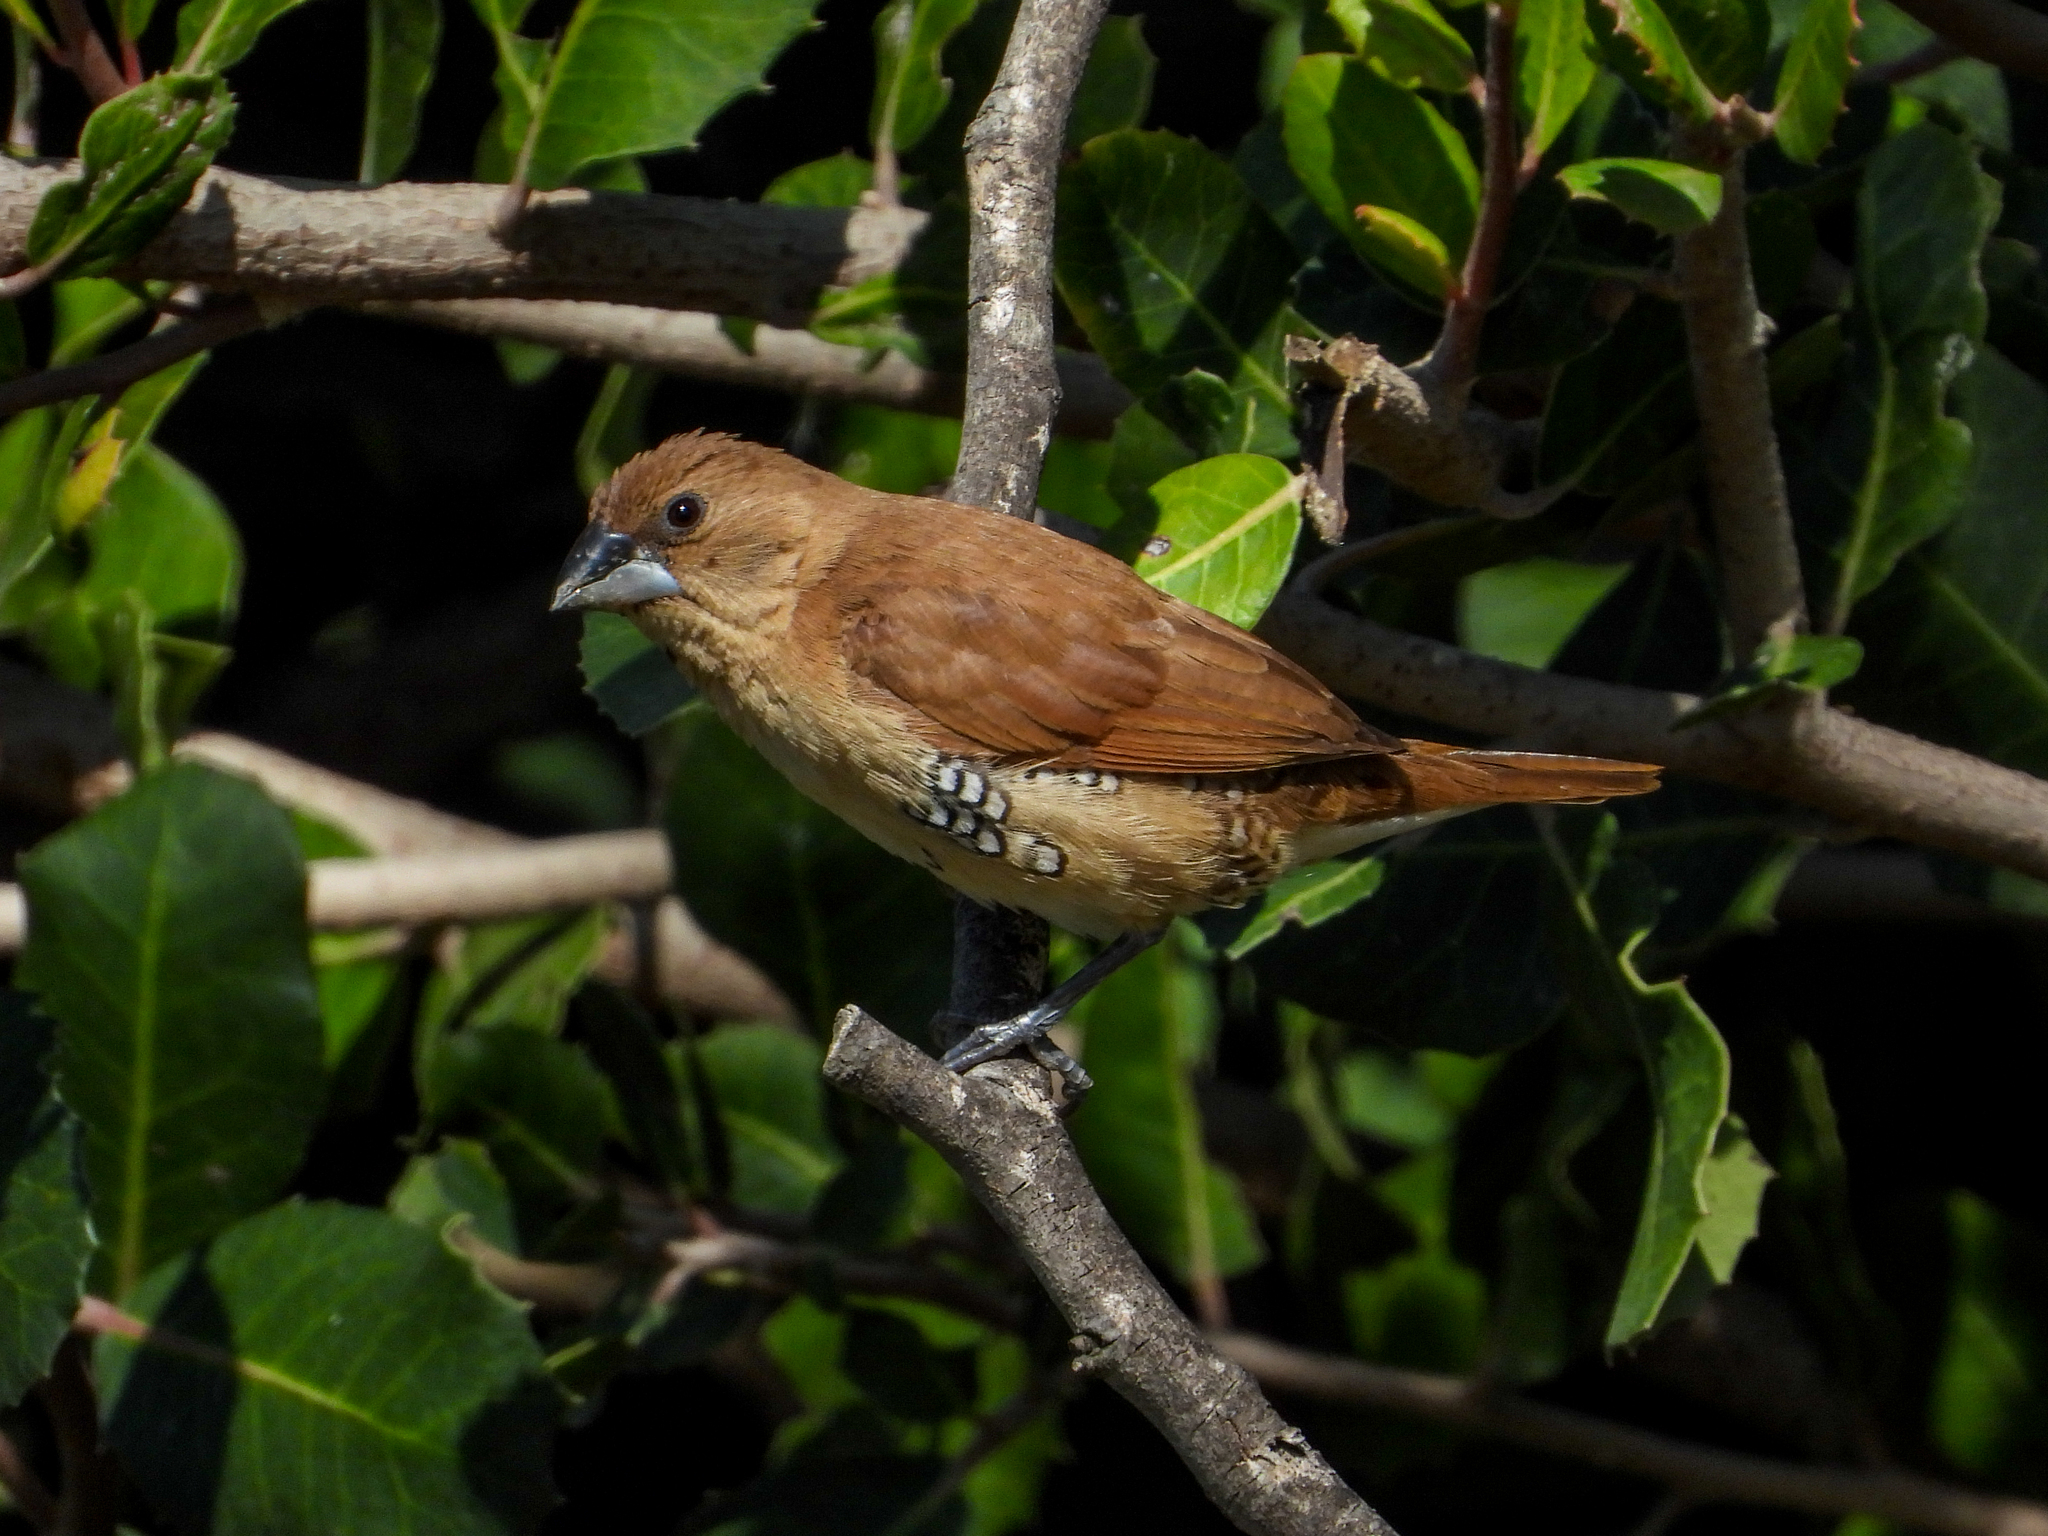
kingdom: Animalia
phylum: Chordata
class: Aves
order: Passeriformes
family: Estrildidae
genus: Lonchura
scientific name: Lonchura punctulata
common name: Scaly-breasted munia
